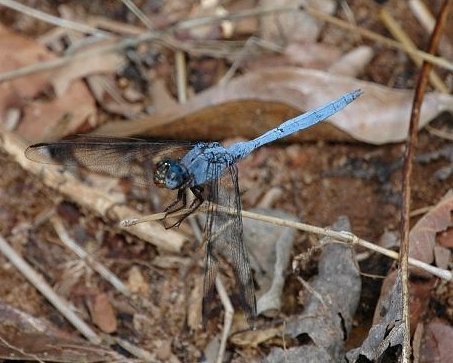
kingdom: Animalia
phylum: Arthropoda
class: Insecta
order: Odonata
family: Libellulidae
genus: Orthetrum
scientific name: Orthetrum lemur
